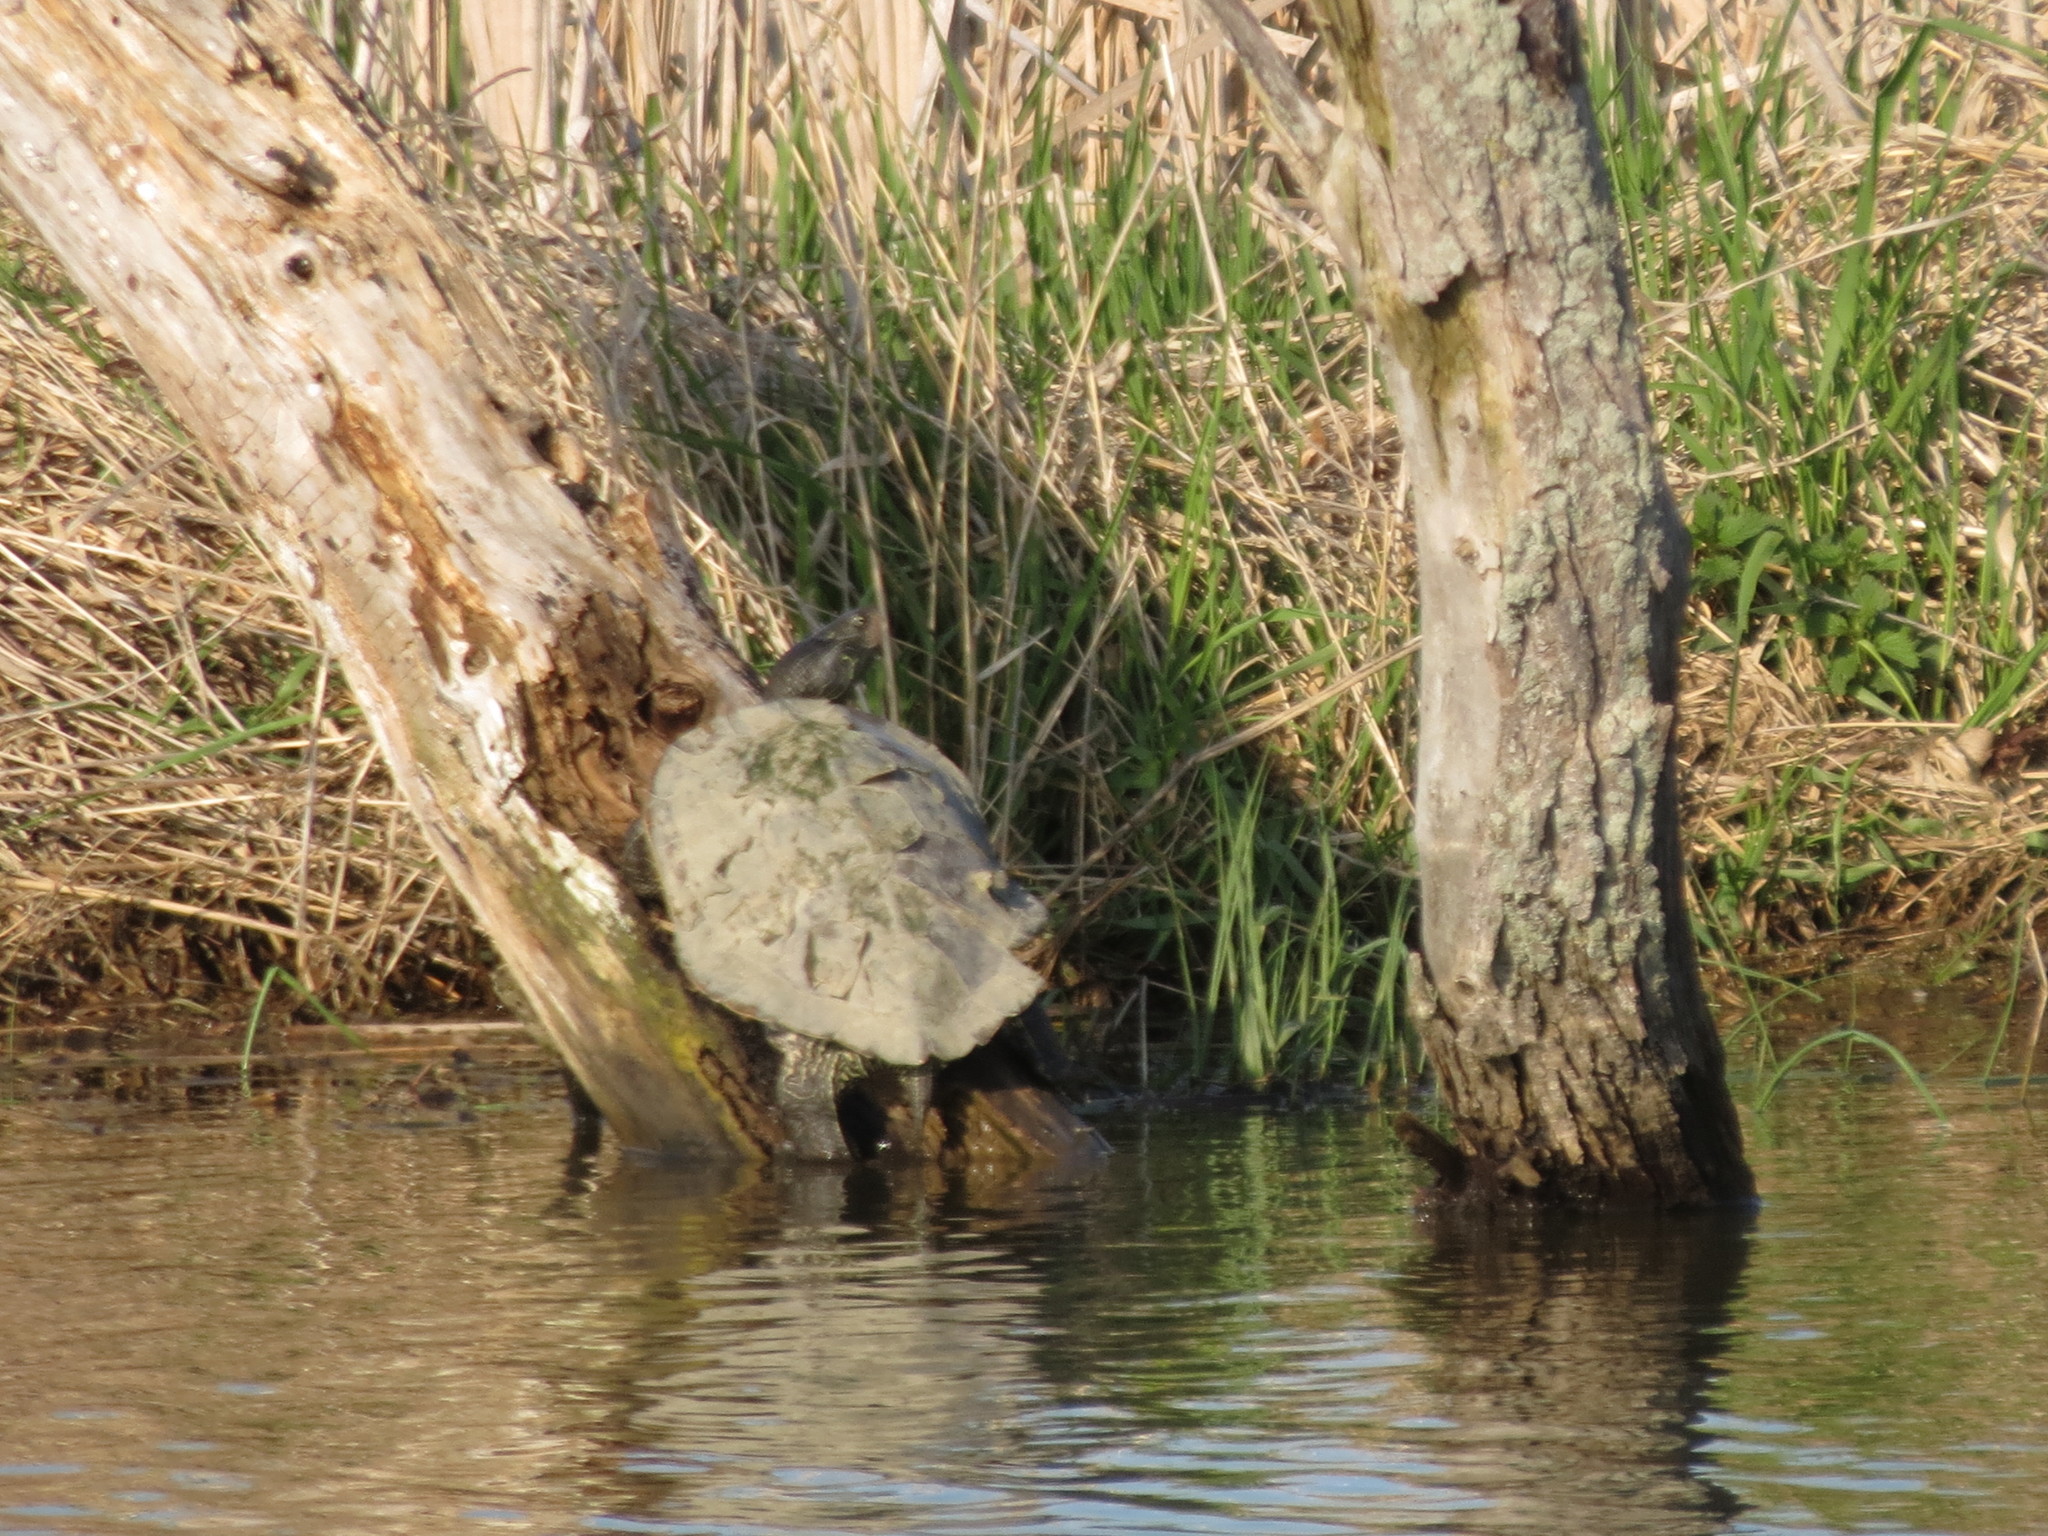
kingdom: Animalia
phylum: Chordata
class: Testudines
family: Emydidae
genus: Graptemys
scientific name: Graptemys geographica
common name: Common map turtle
